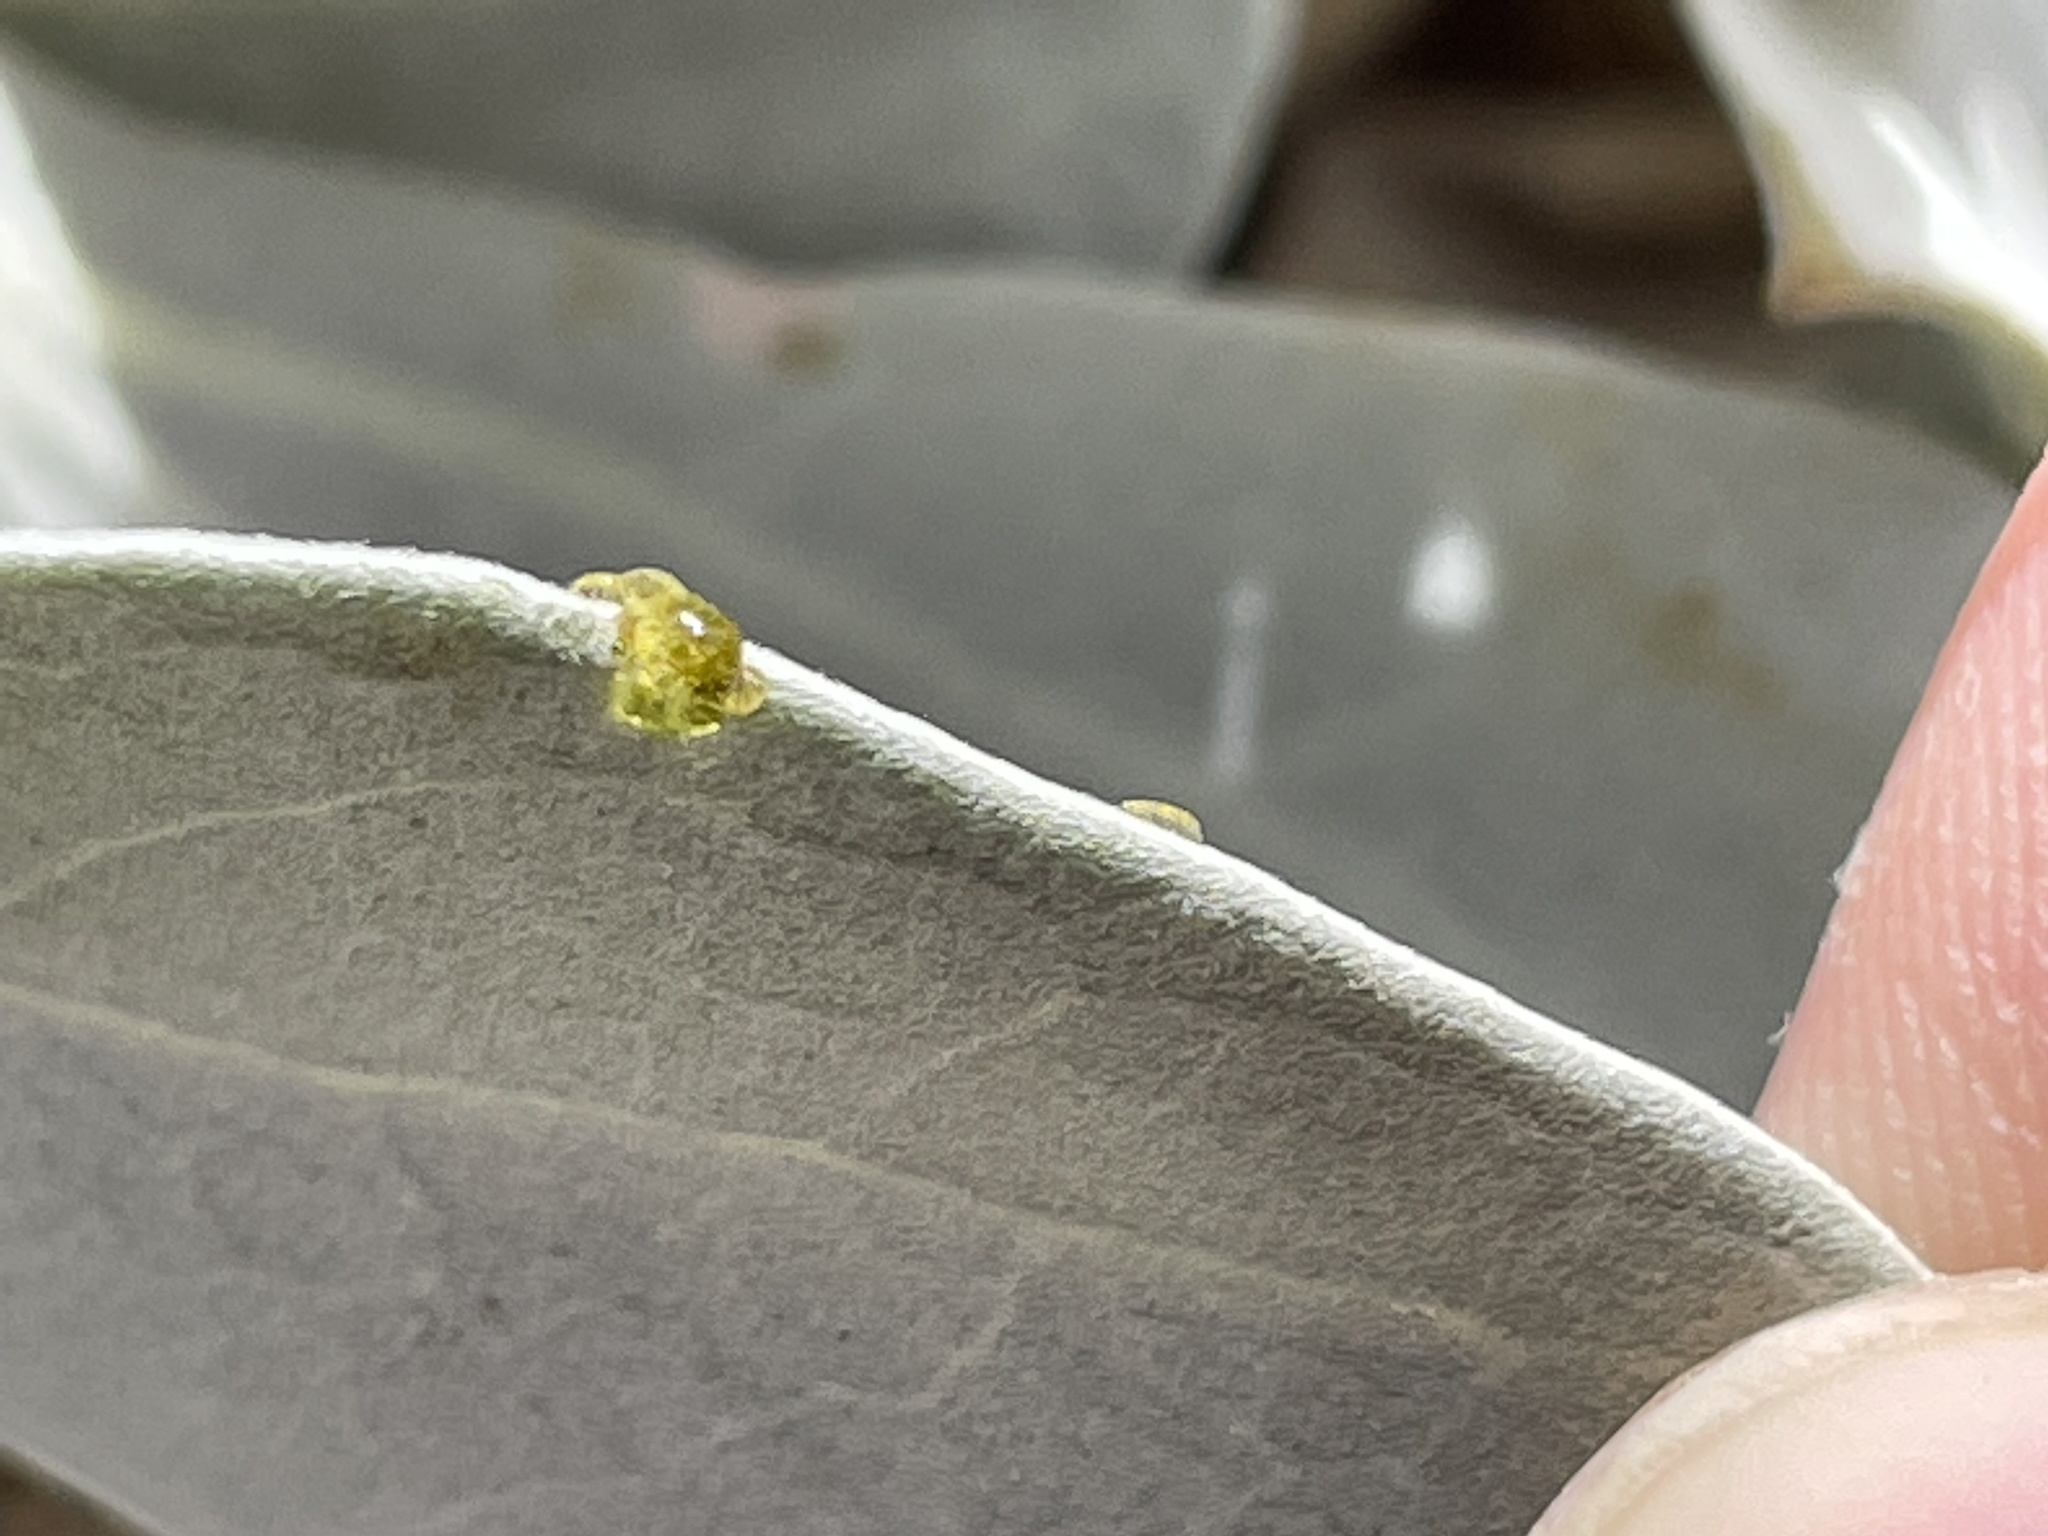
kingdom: Plantae
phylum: Tracheophyta
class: Magnoliopsida
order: Asterales
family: Asteraceae
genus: Enceliopsis
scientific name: Enceliopsis argophylla
